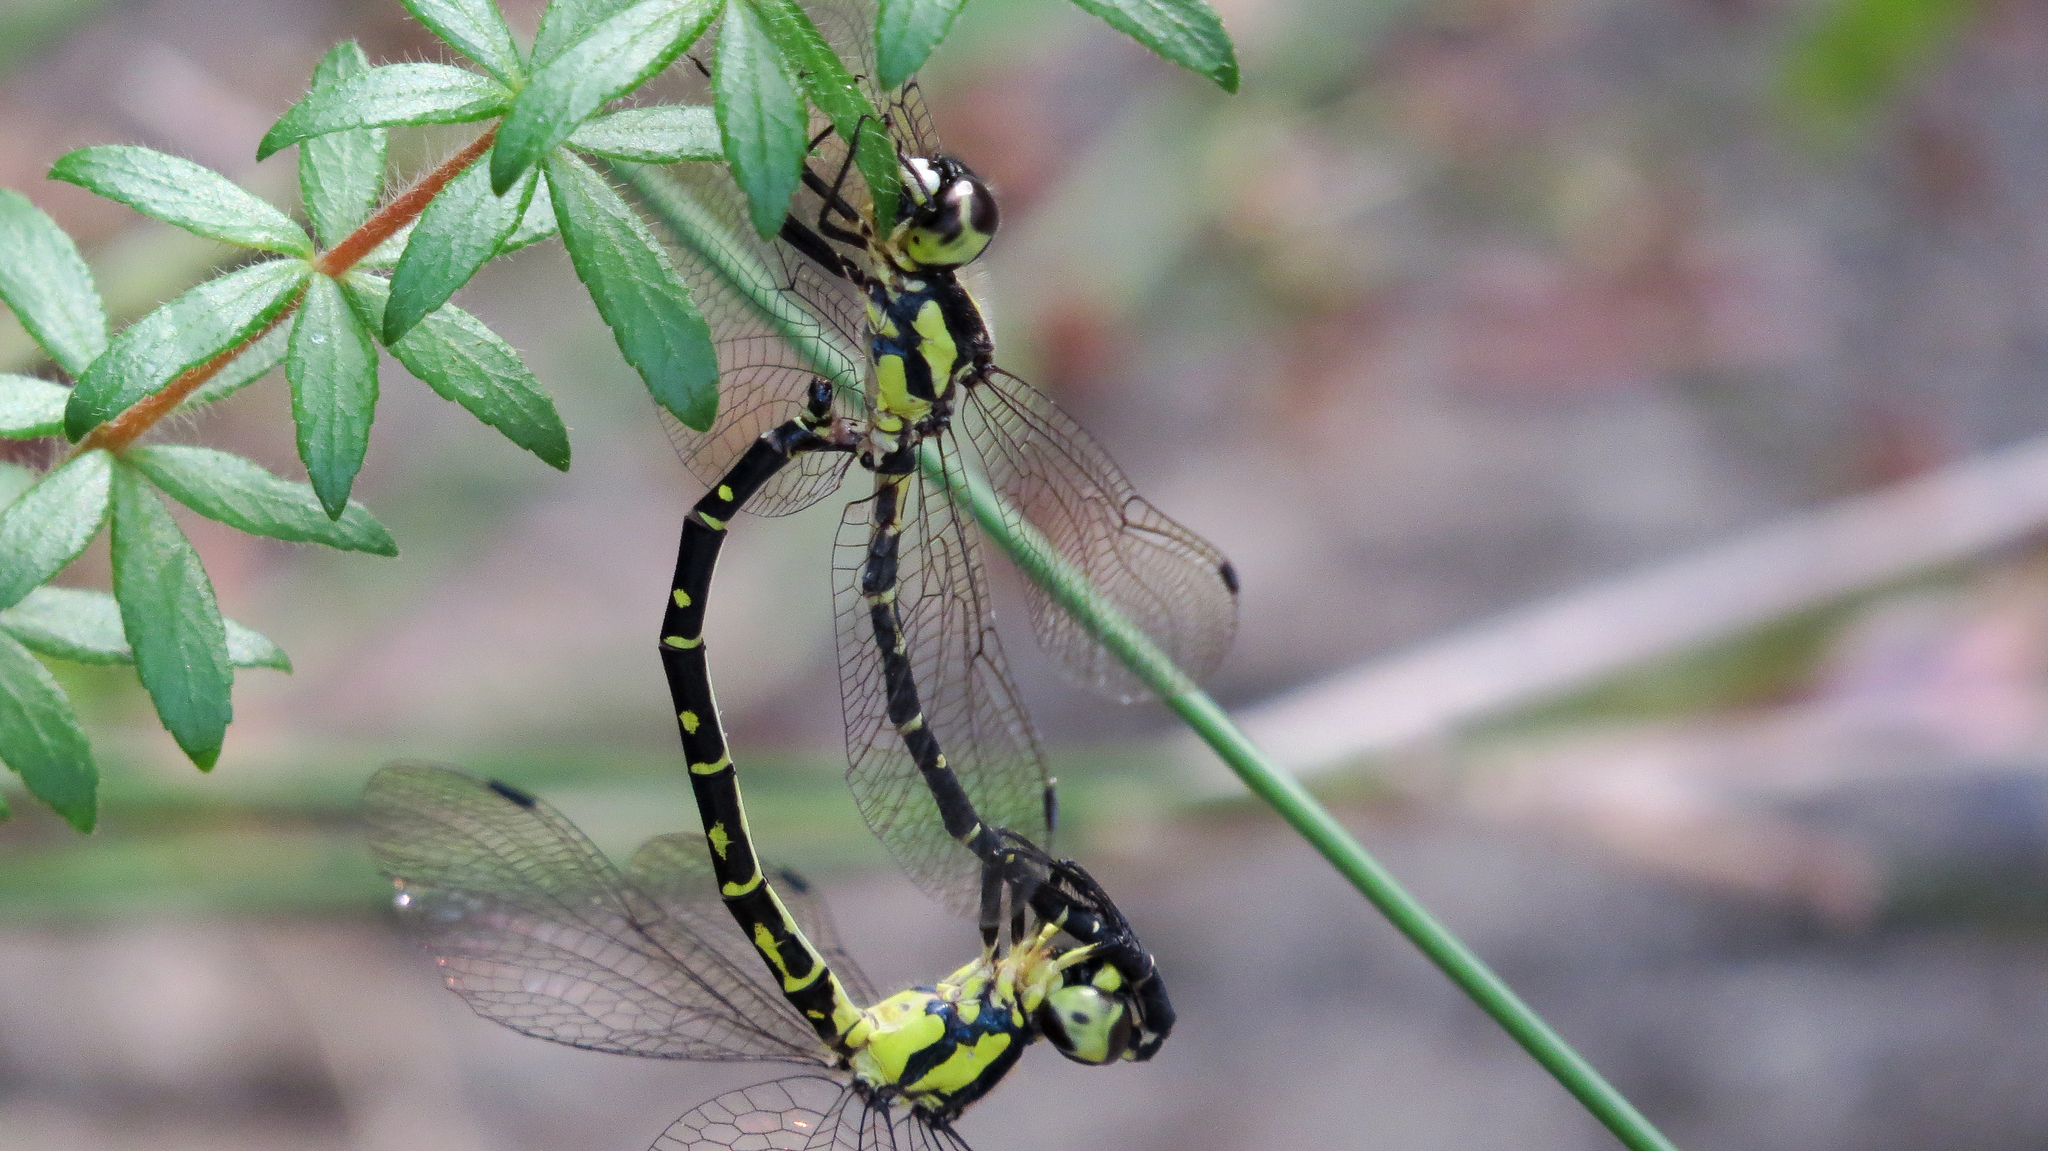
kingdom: Animalia
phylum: Arthropoda
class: Insecta
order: Odonata
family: Synthemistidae
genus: Choristhemis
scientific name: Choristhemis flavoterminata
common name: Yellow-tipped tigertail
